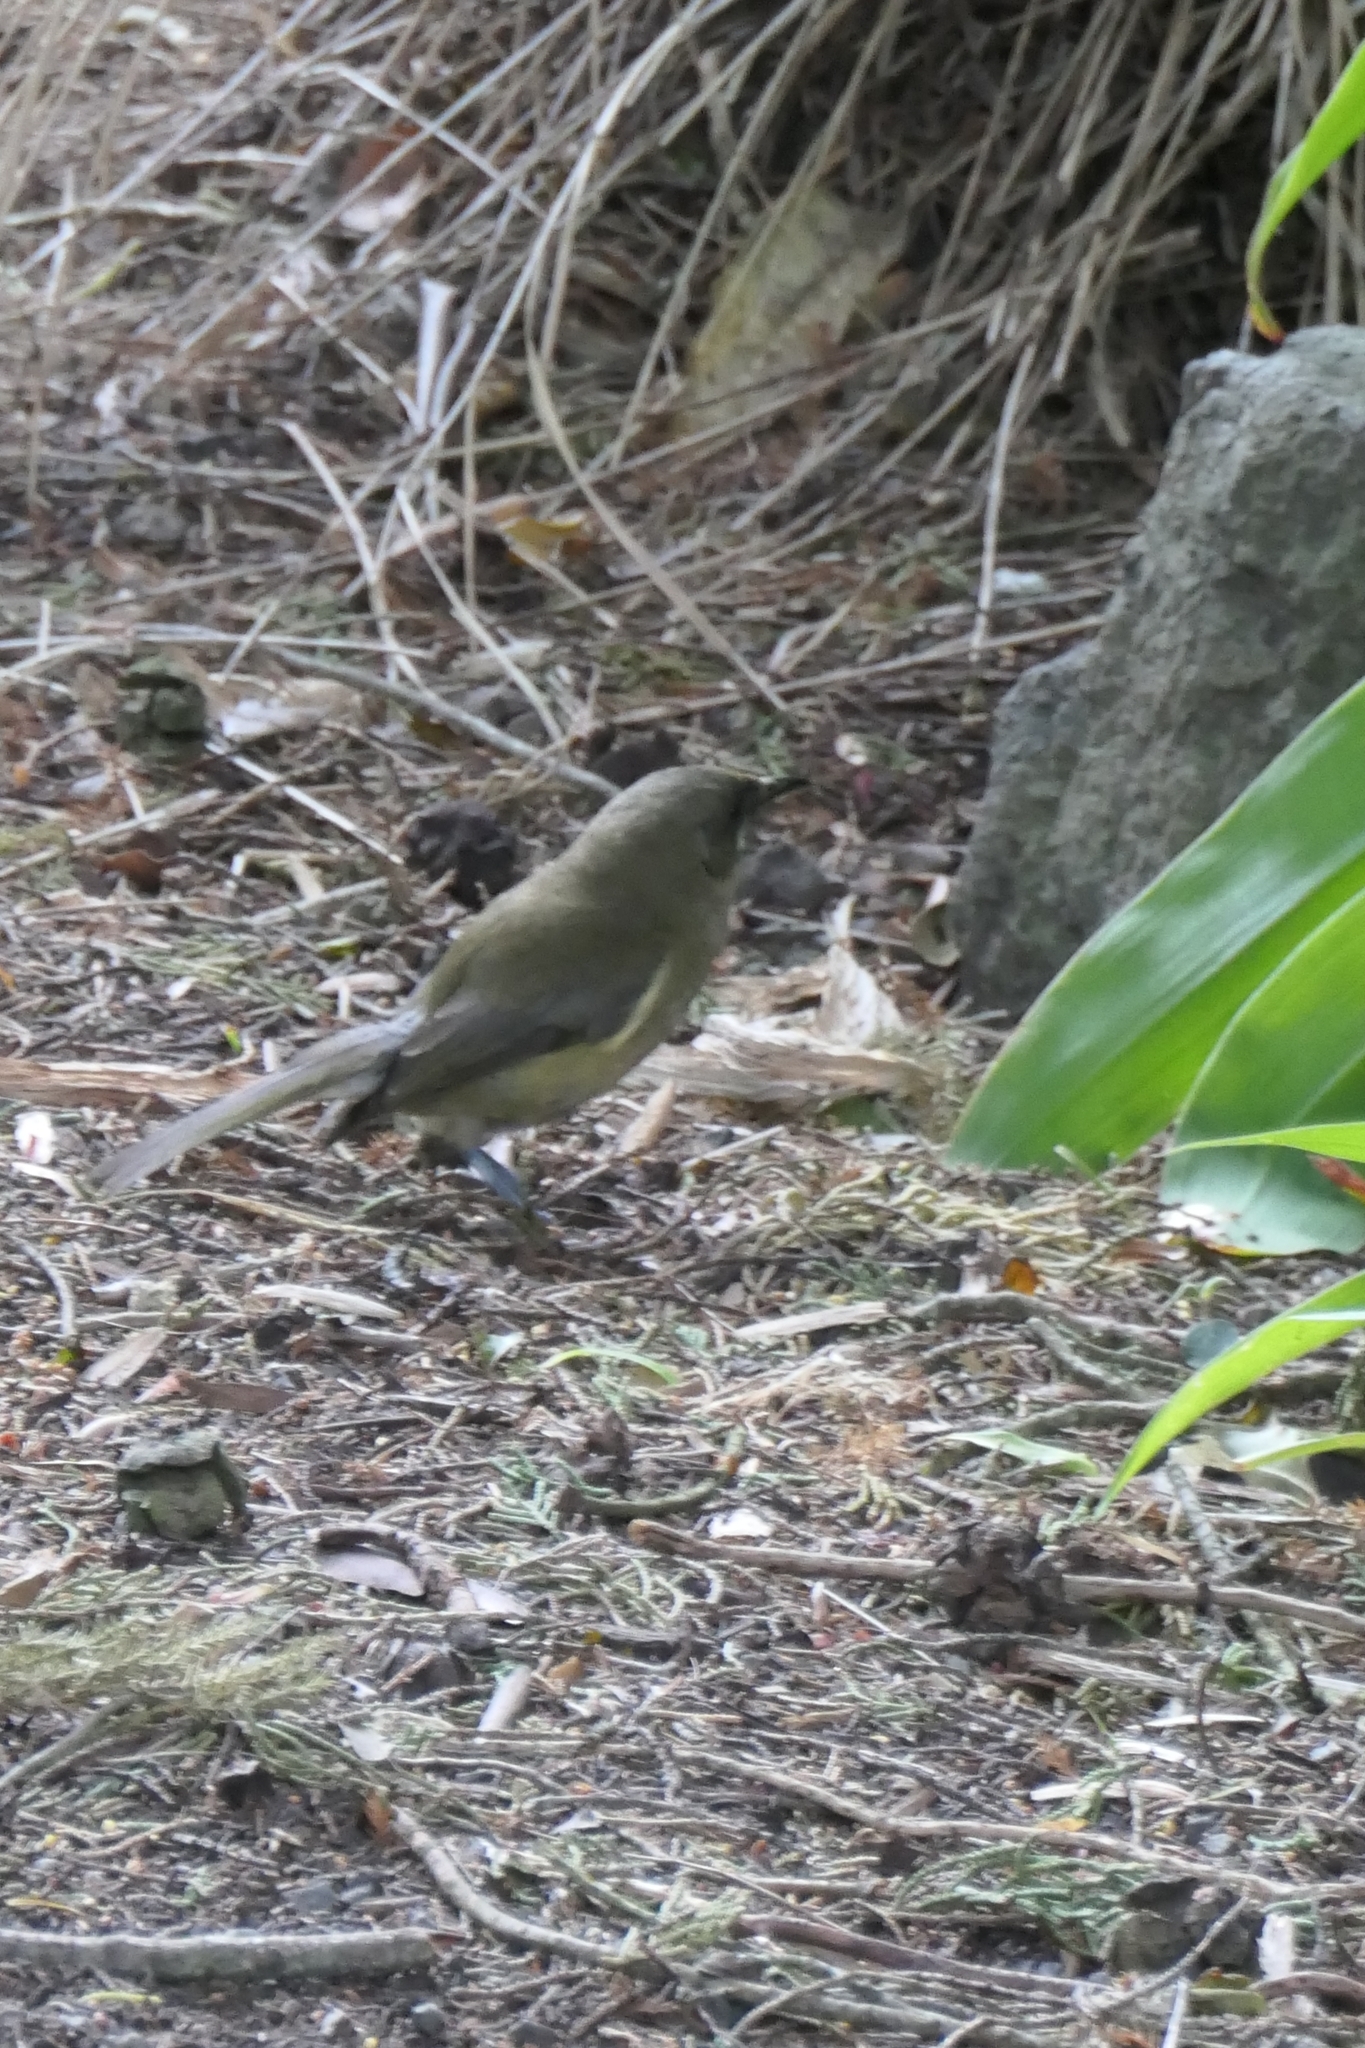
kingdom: Animalia
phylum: Chordata
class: Aves
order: Passeriformes
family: Meliphagidae
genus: Anthornis
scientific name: Anthornis melanura
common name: New zealand bellbird
